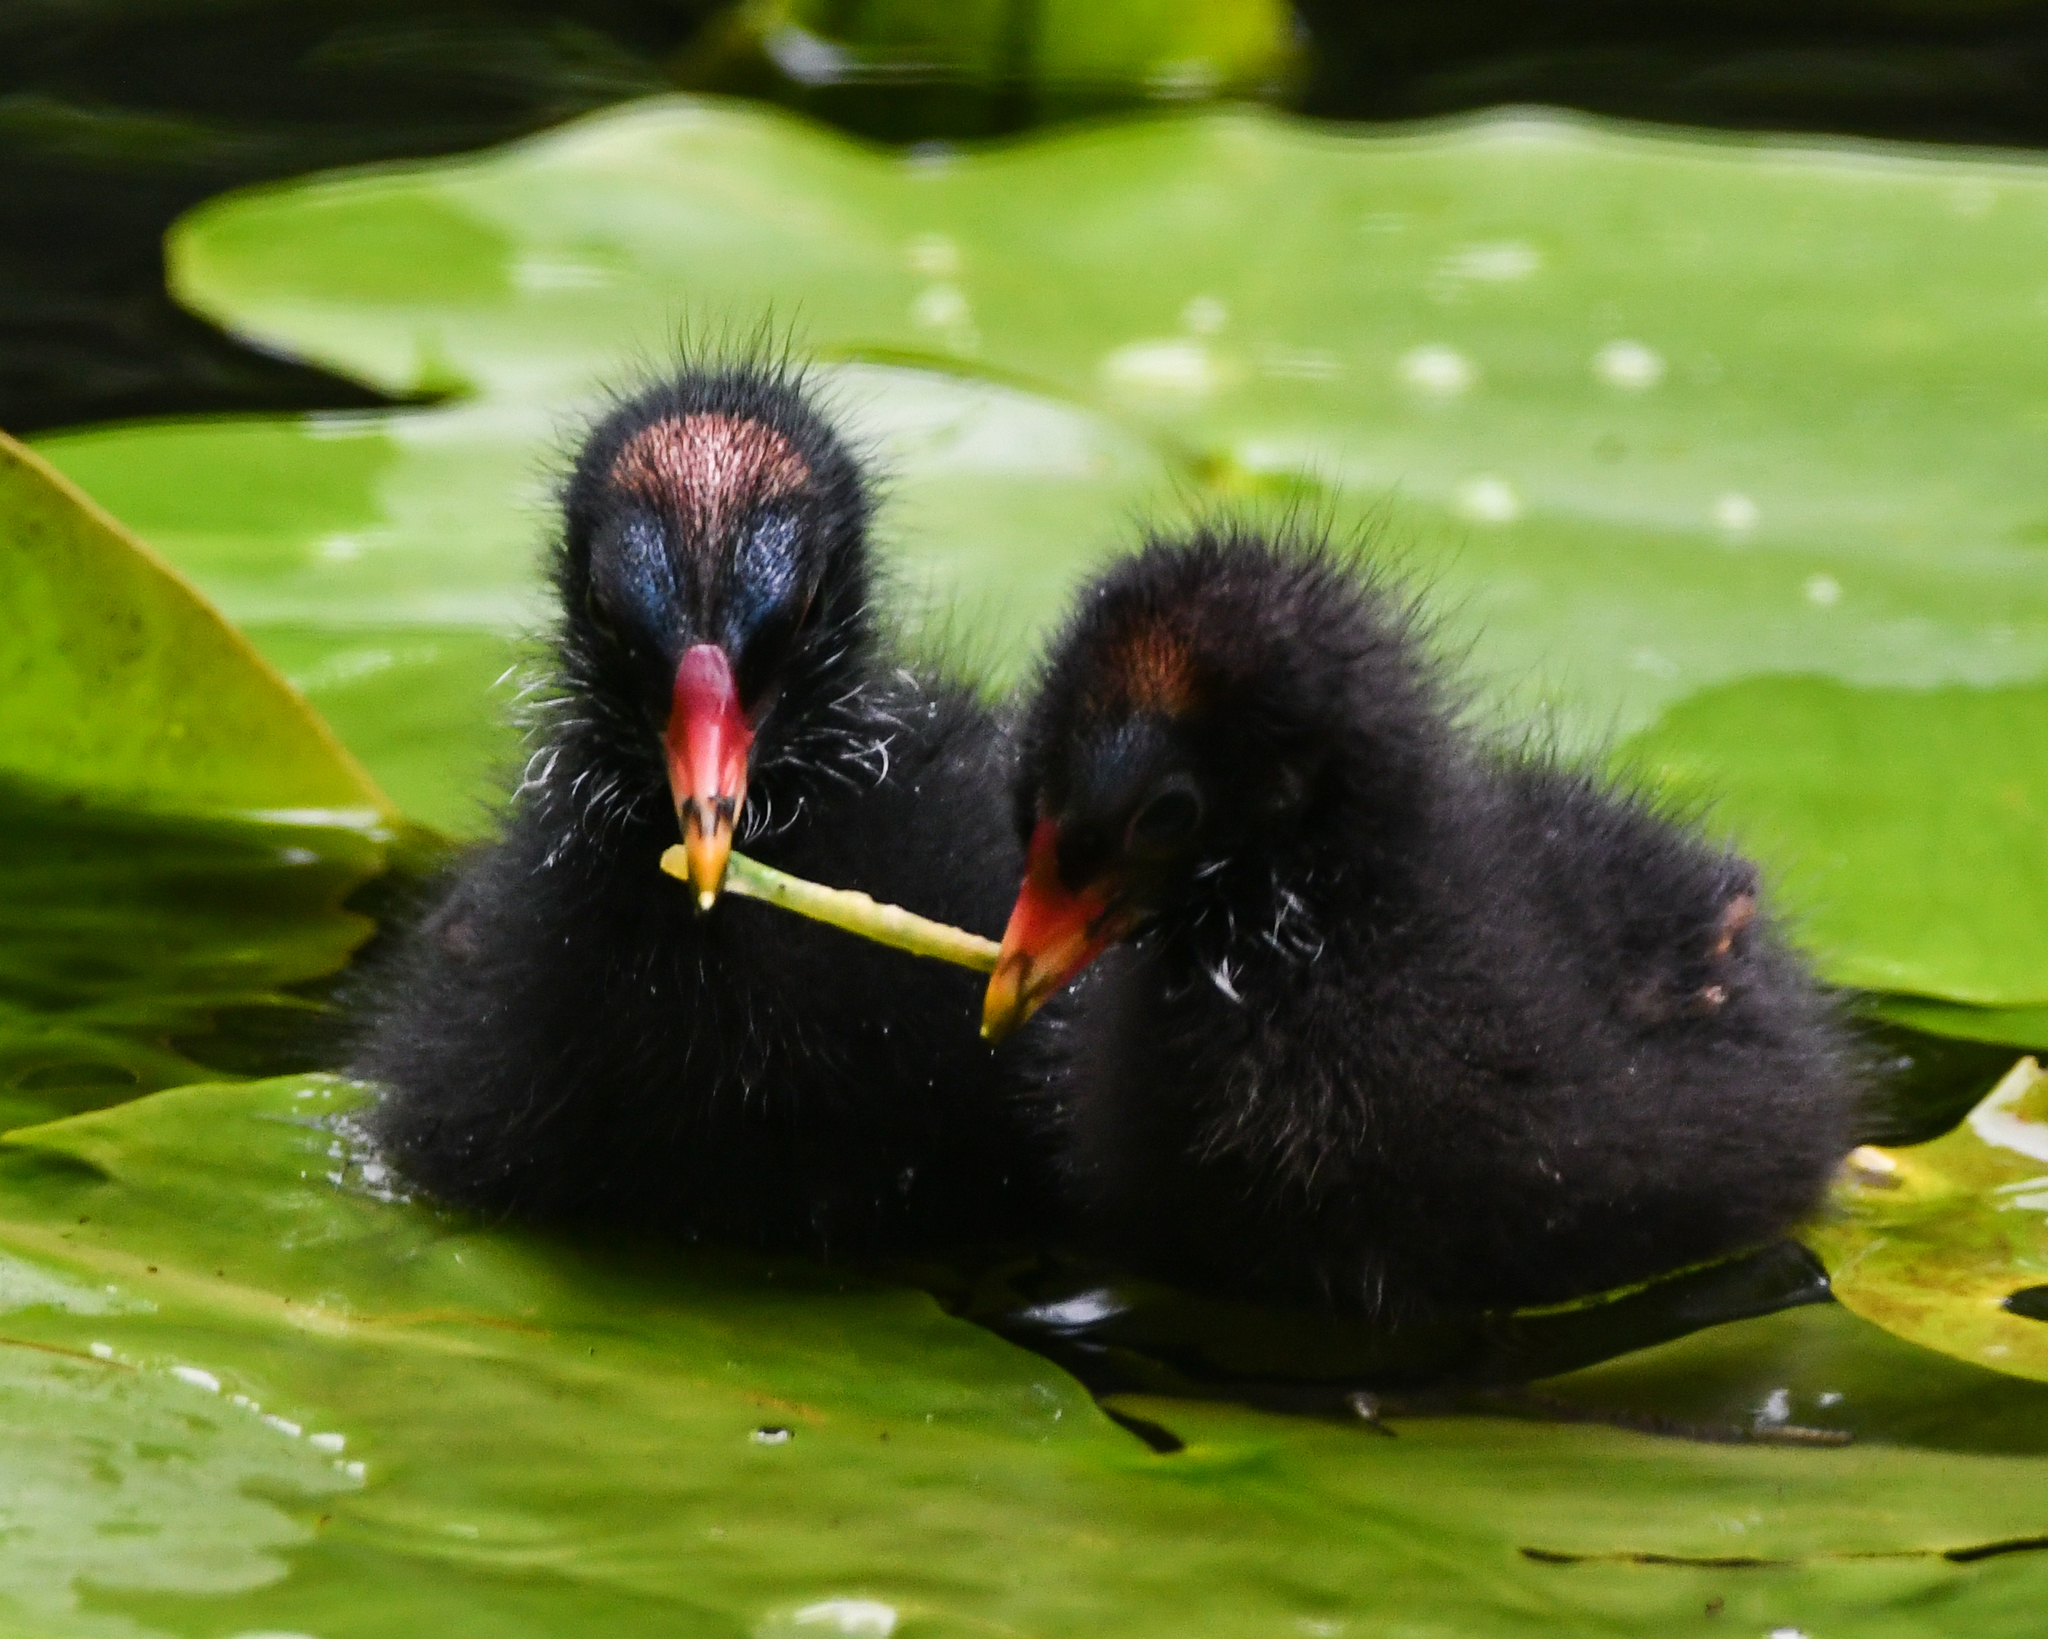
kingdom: Animalia
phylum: Chordata
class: Aves
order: Gruiformes
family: Rallidae
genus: Gallinula
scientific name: Gallinula chloropus
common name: Common moorhen
